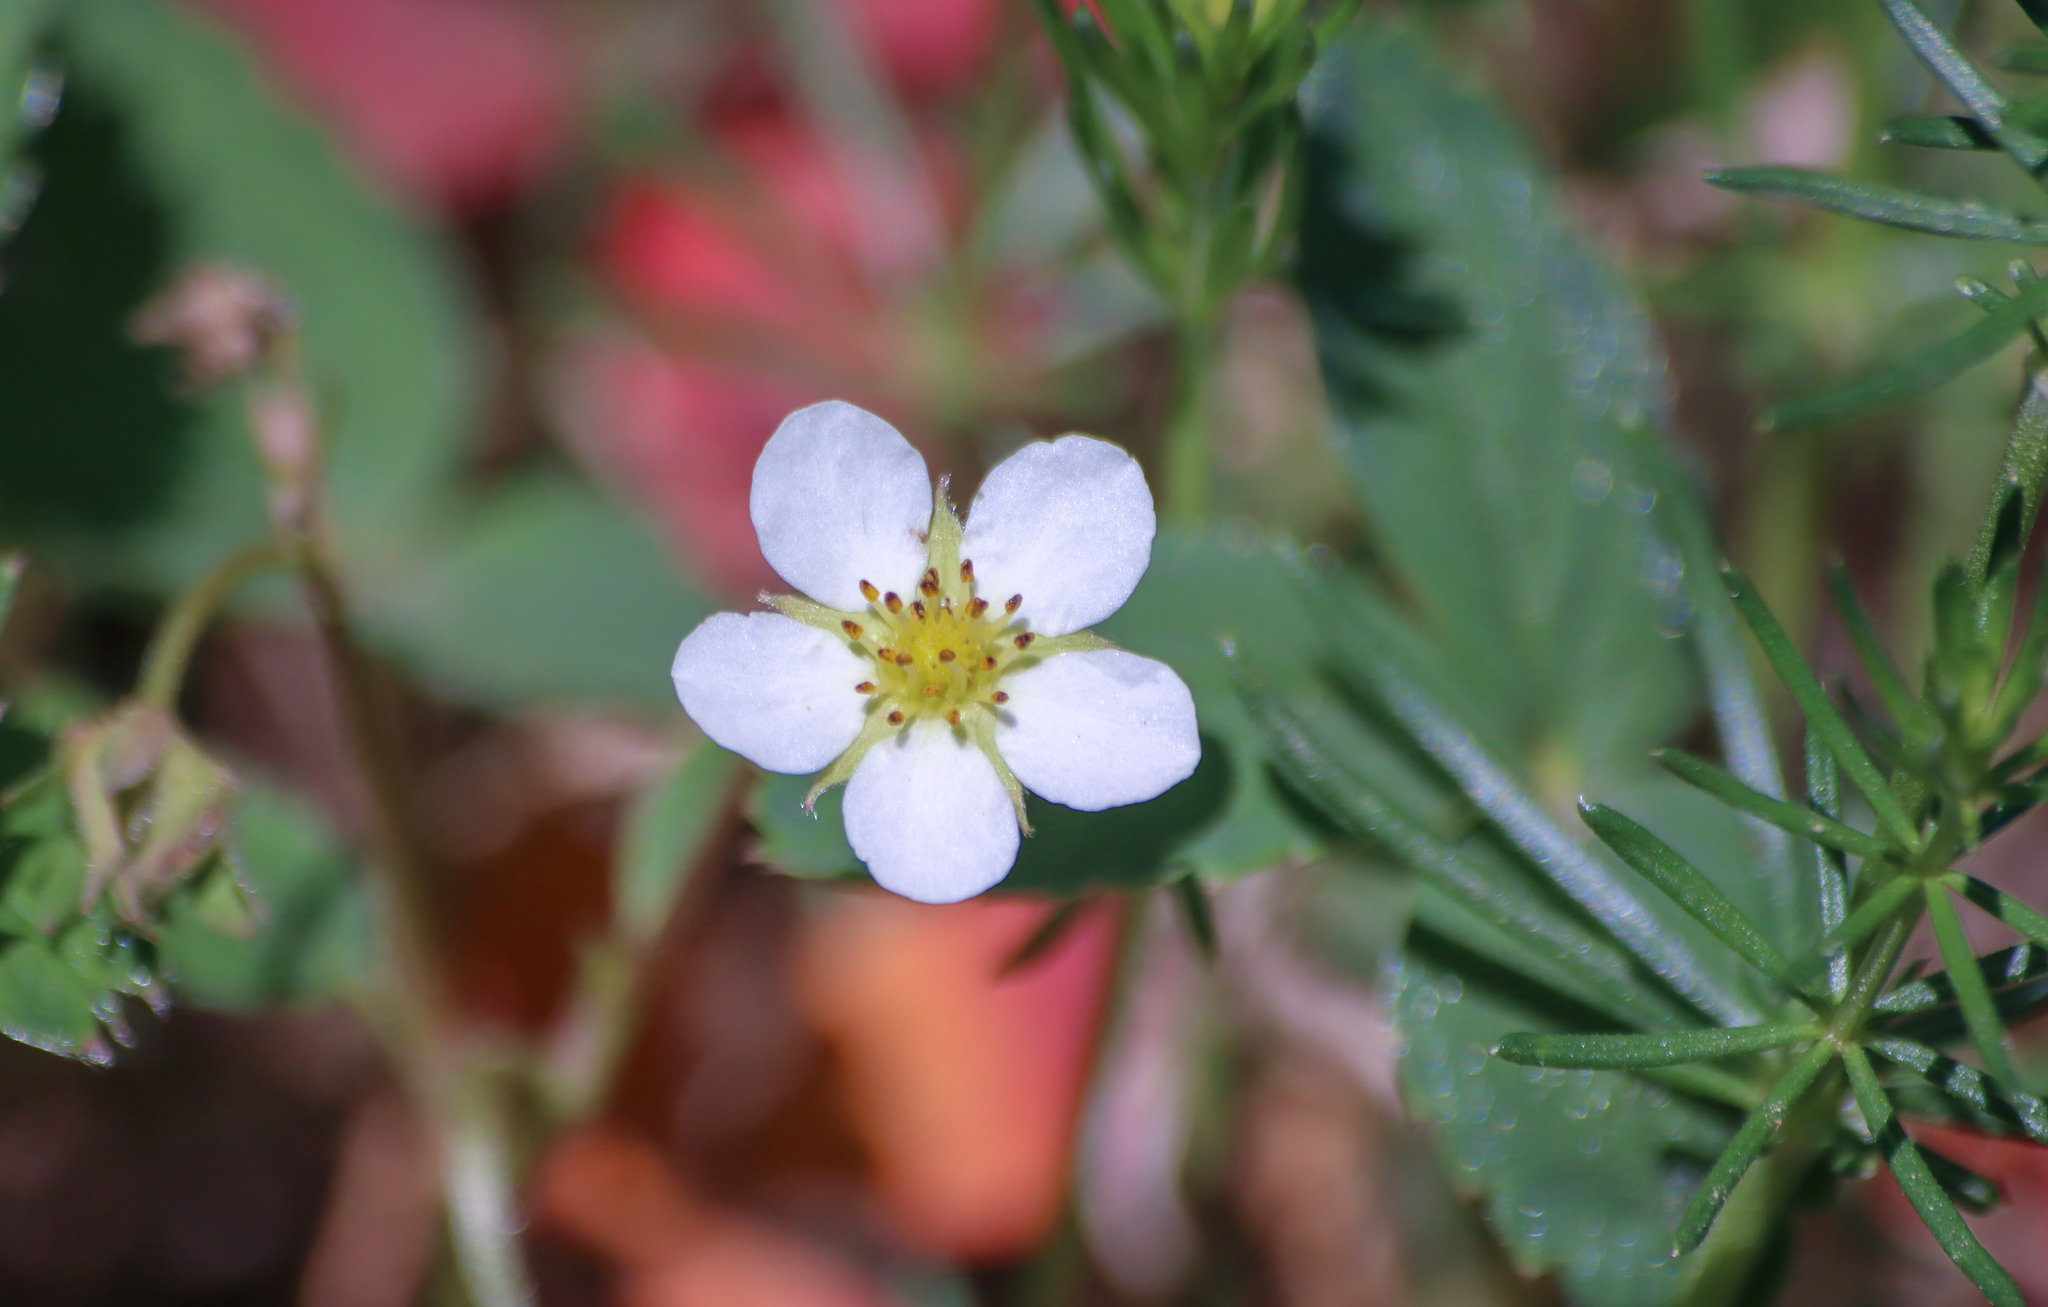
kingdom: Plantae
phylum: Tracheophyta
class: Magnoliopsida
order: Rosales
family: Rosaceae
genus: Fragaria
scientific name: Fragaria virginiana
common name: Thickleaved wild strawberry
